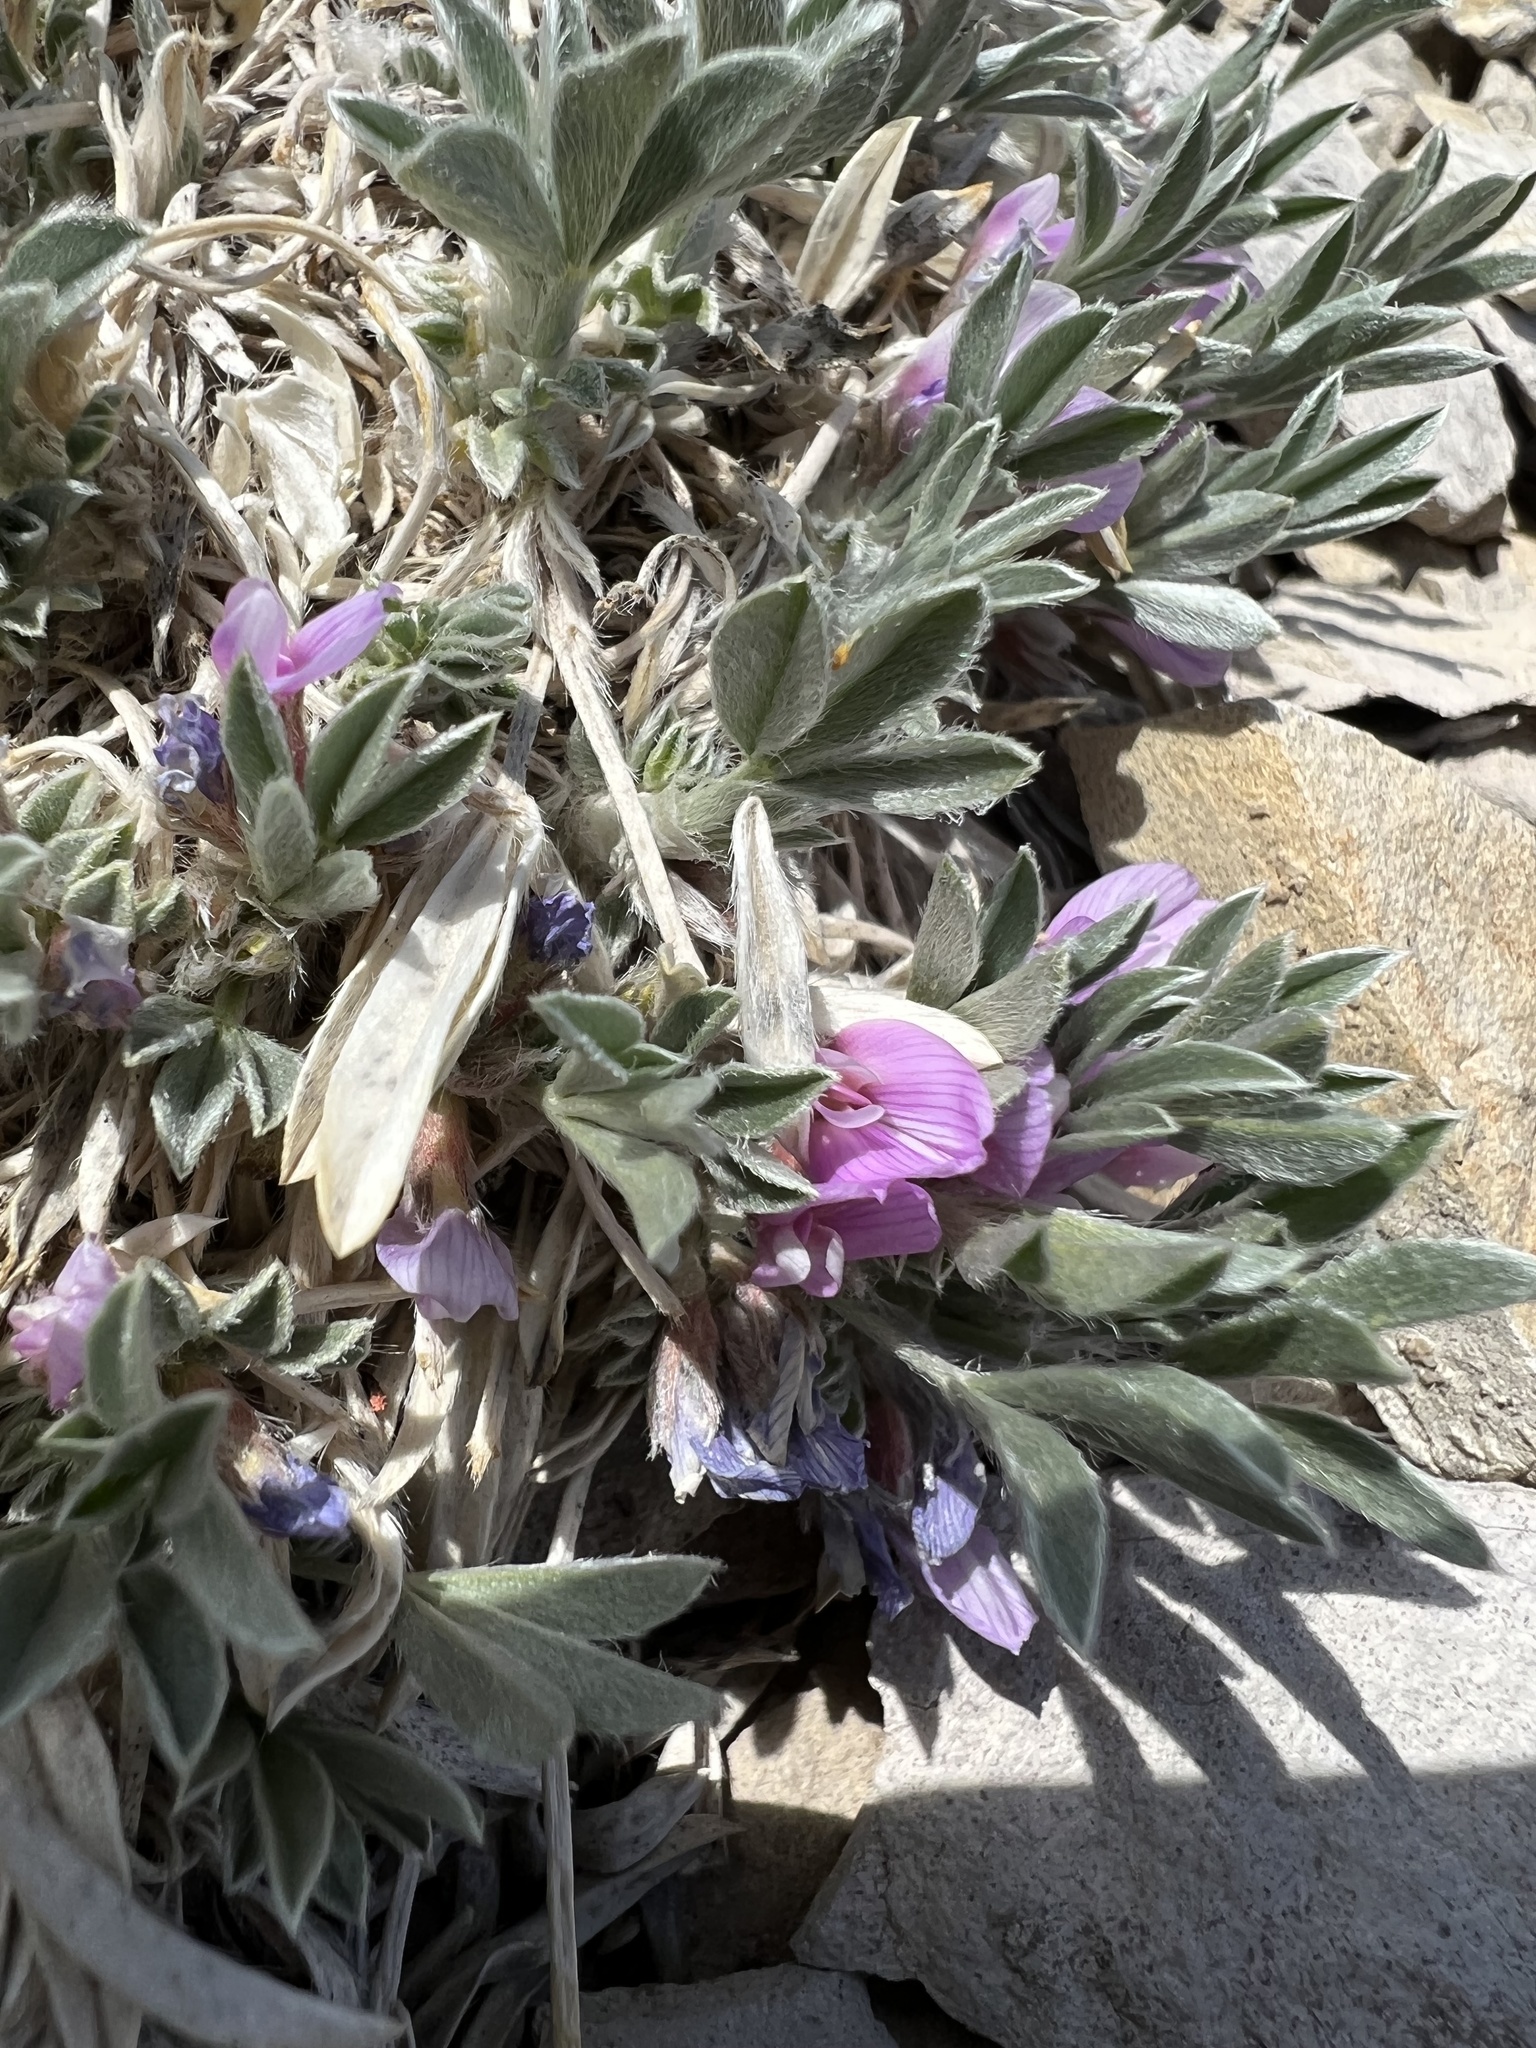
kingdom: Plantae
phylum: Tracheophyta
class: Magnoliopsida
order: Fabales
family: Fabaceae
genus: Astragalus
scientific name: Astragalus tridactylicus
